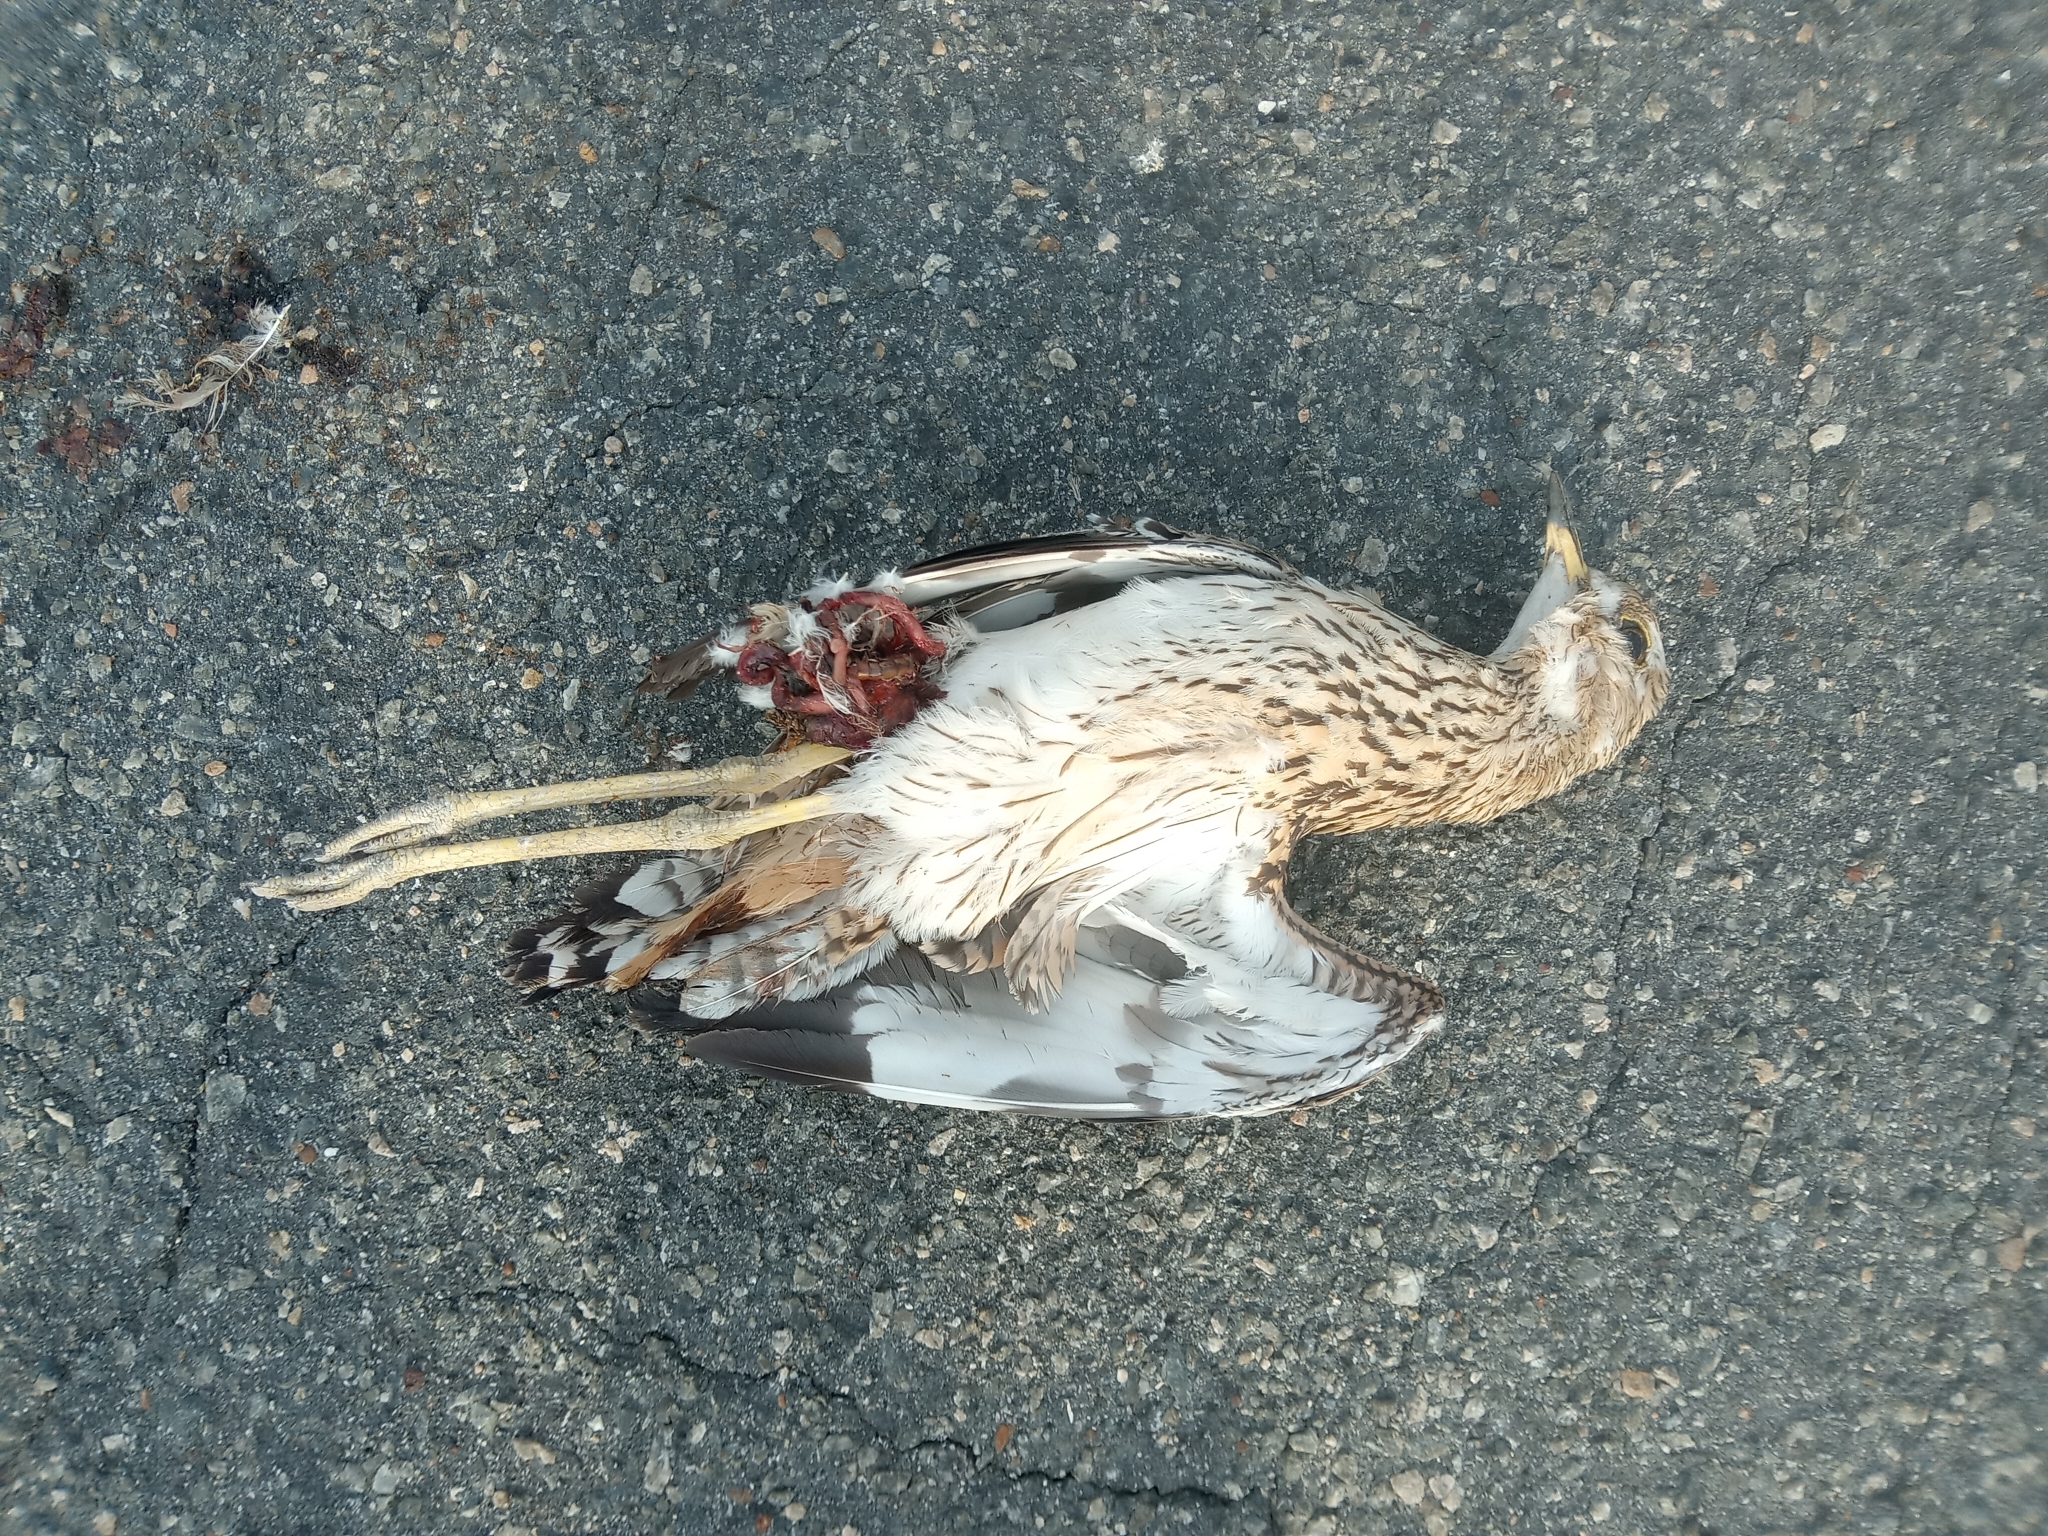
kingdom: Animalia
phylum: Chordata
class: Aves
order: Charadriiformes
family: Burhinidae
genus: Burhinus
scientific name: Burhinus capensis
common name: Spotted thick-knee
